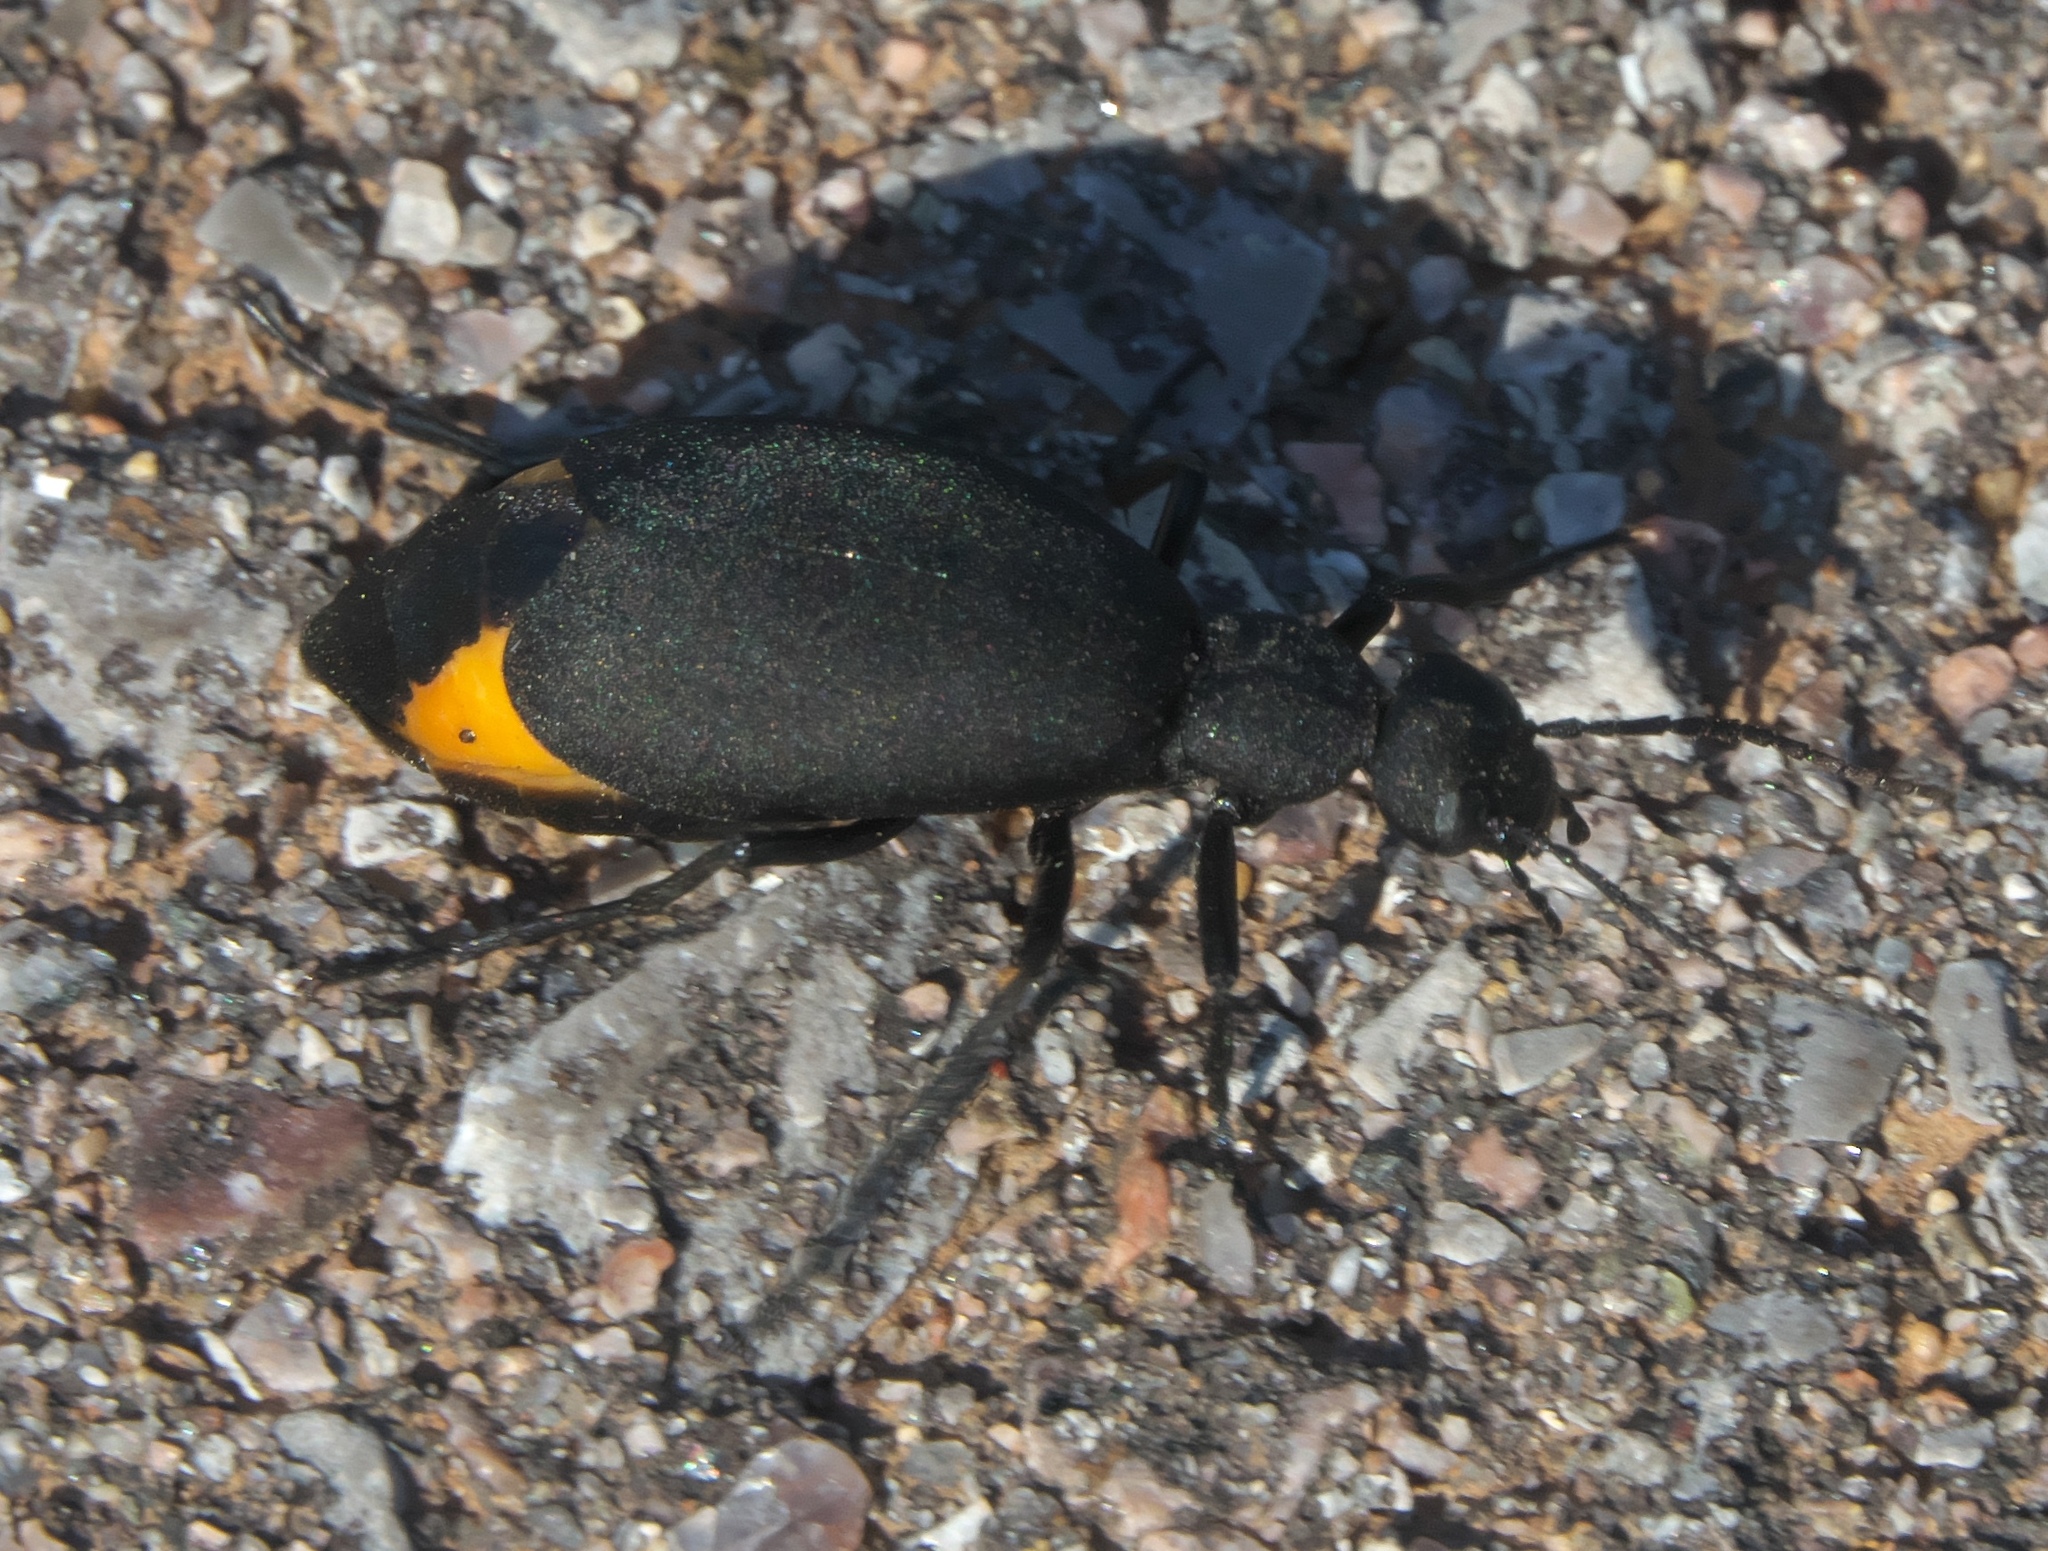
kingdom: Animalia
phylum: Arthropoda
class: Insecta
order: Coleoptera
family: Meloidae
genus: Epicauta
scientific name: Epicauta conferta
